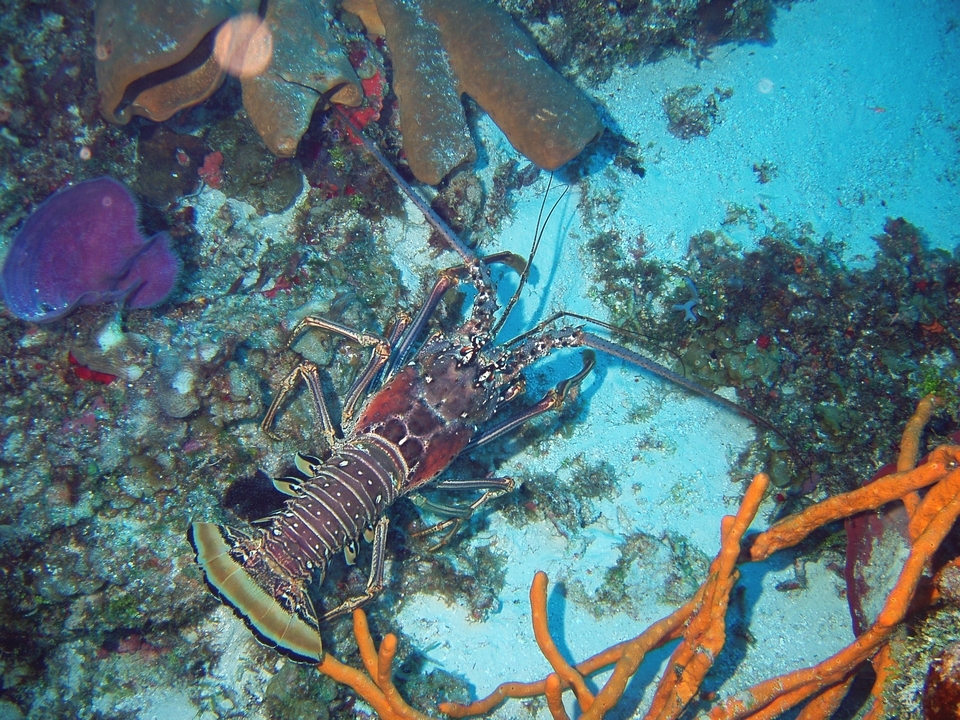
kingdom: Animalia
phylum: Arthropoda
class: Malacostraca
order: Decapoda
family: Palinuridae
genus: Panulirus
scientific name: Panulirus argus
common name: Caribbean spiny lobster
